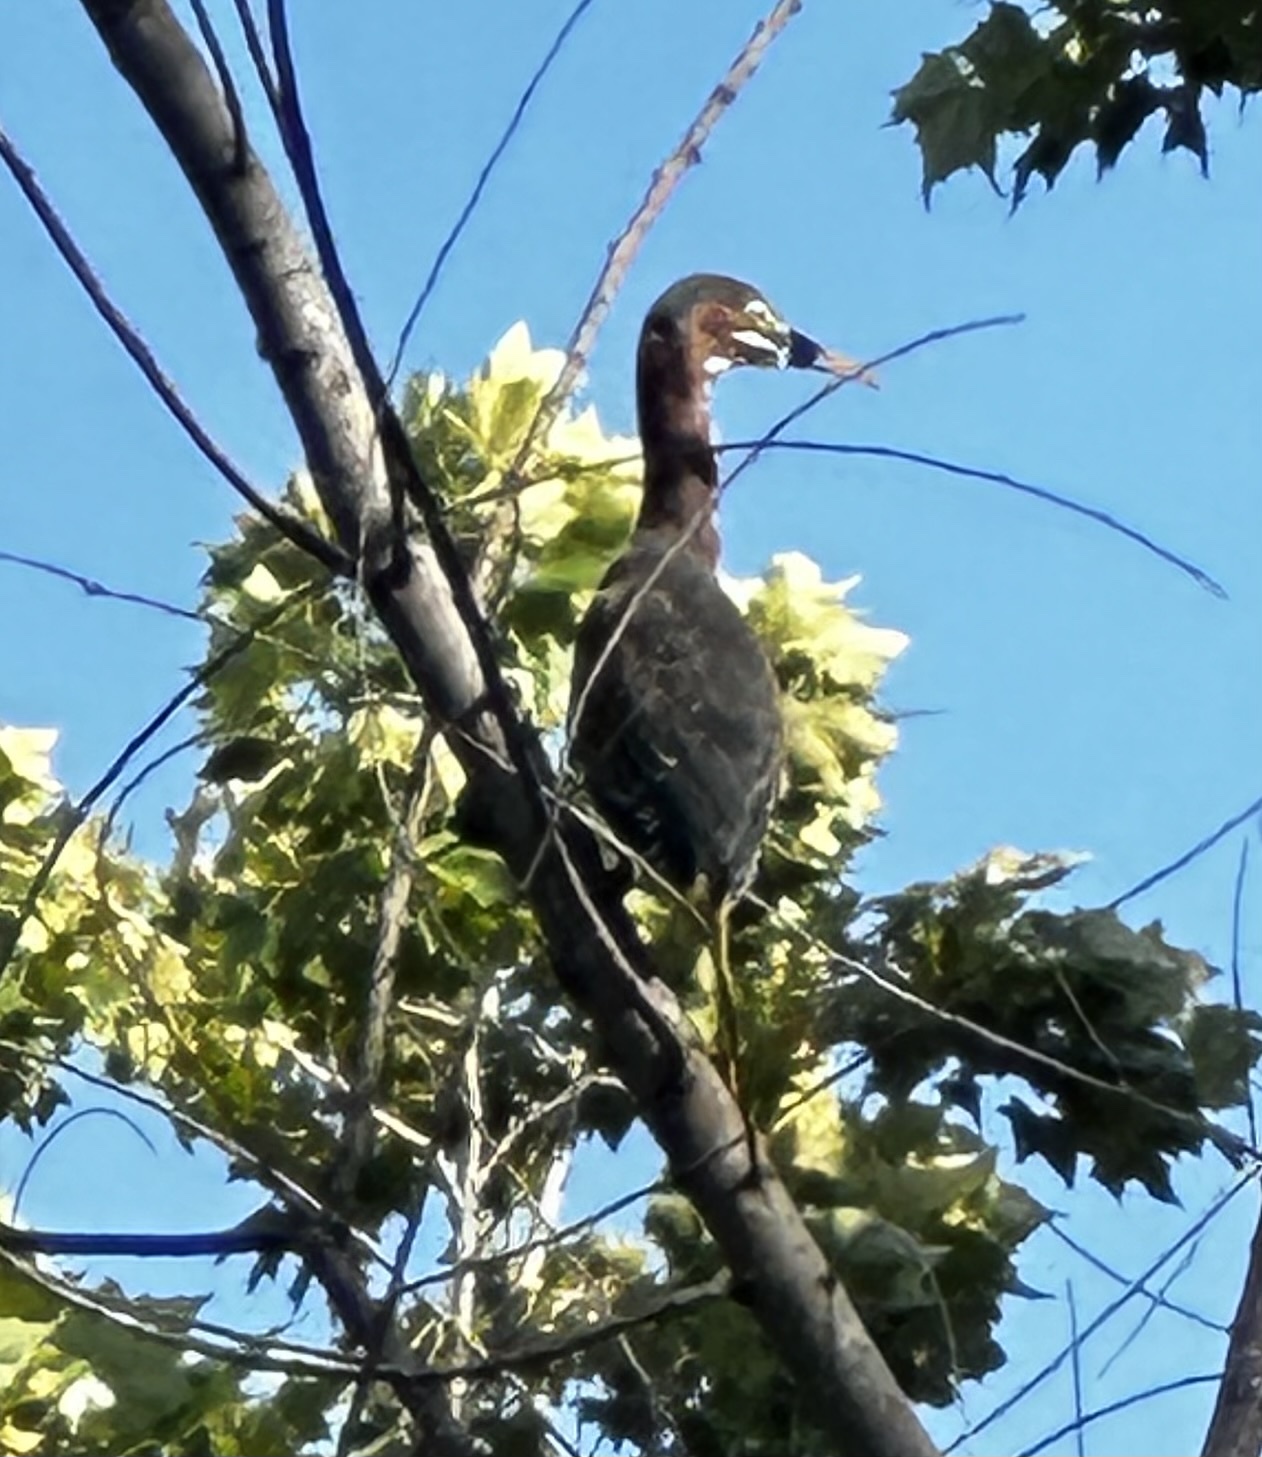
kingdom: Animalia
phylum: Chordata
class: Aves
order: Pelecaniformes
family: Ardeidae
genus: Butorides
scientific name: Butorides virescens
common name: Green heron
